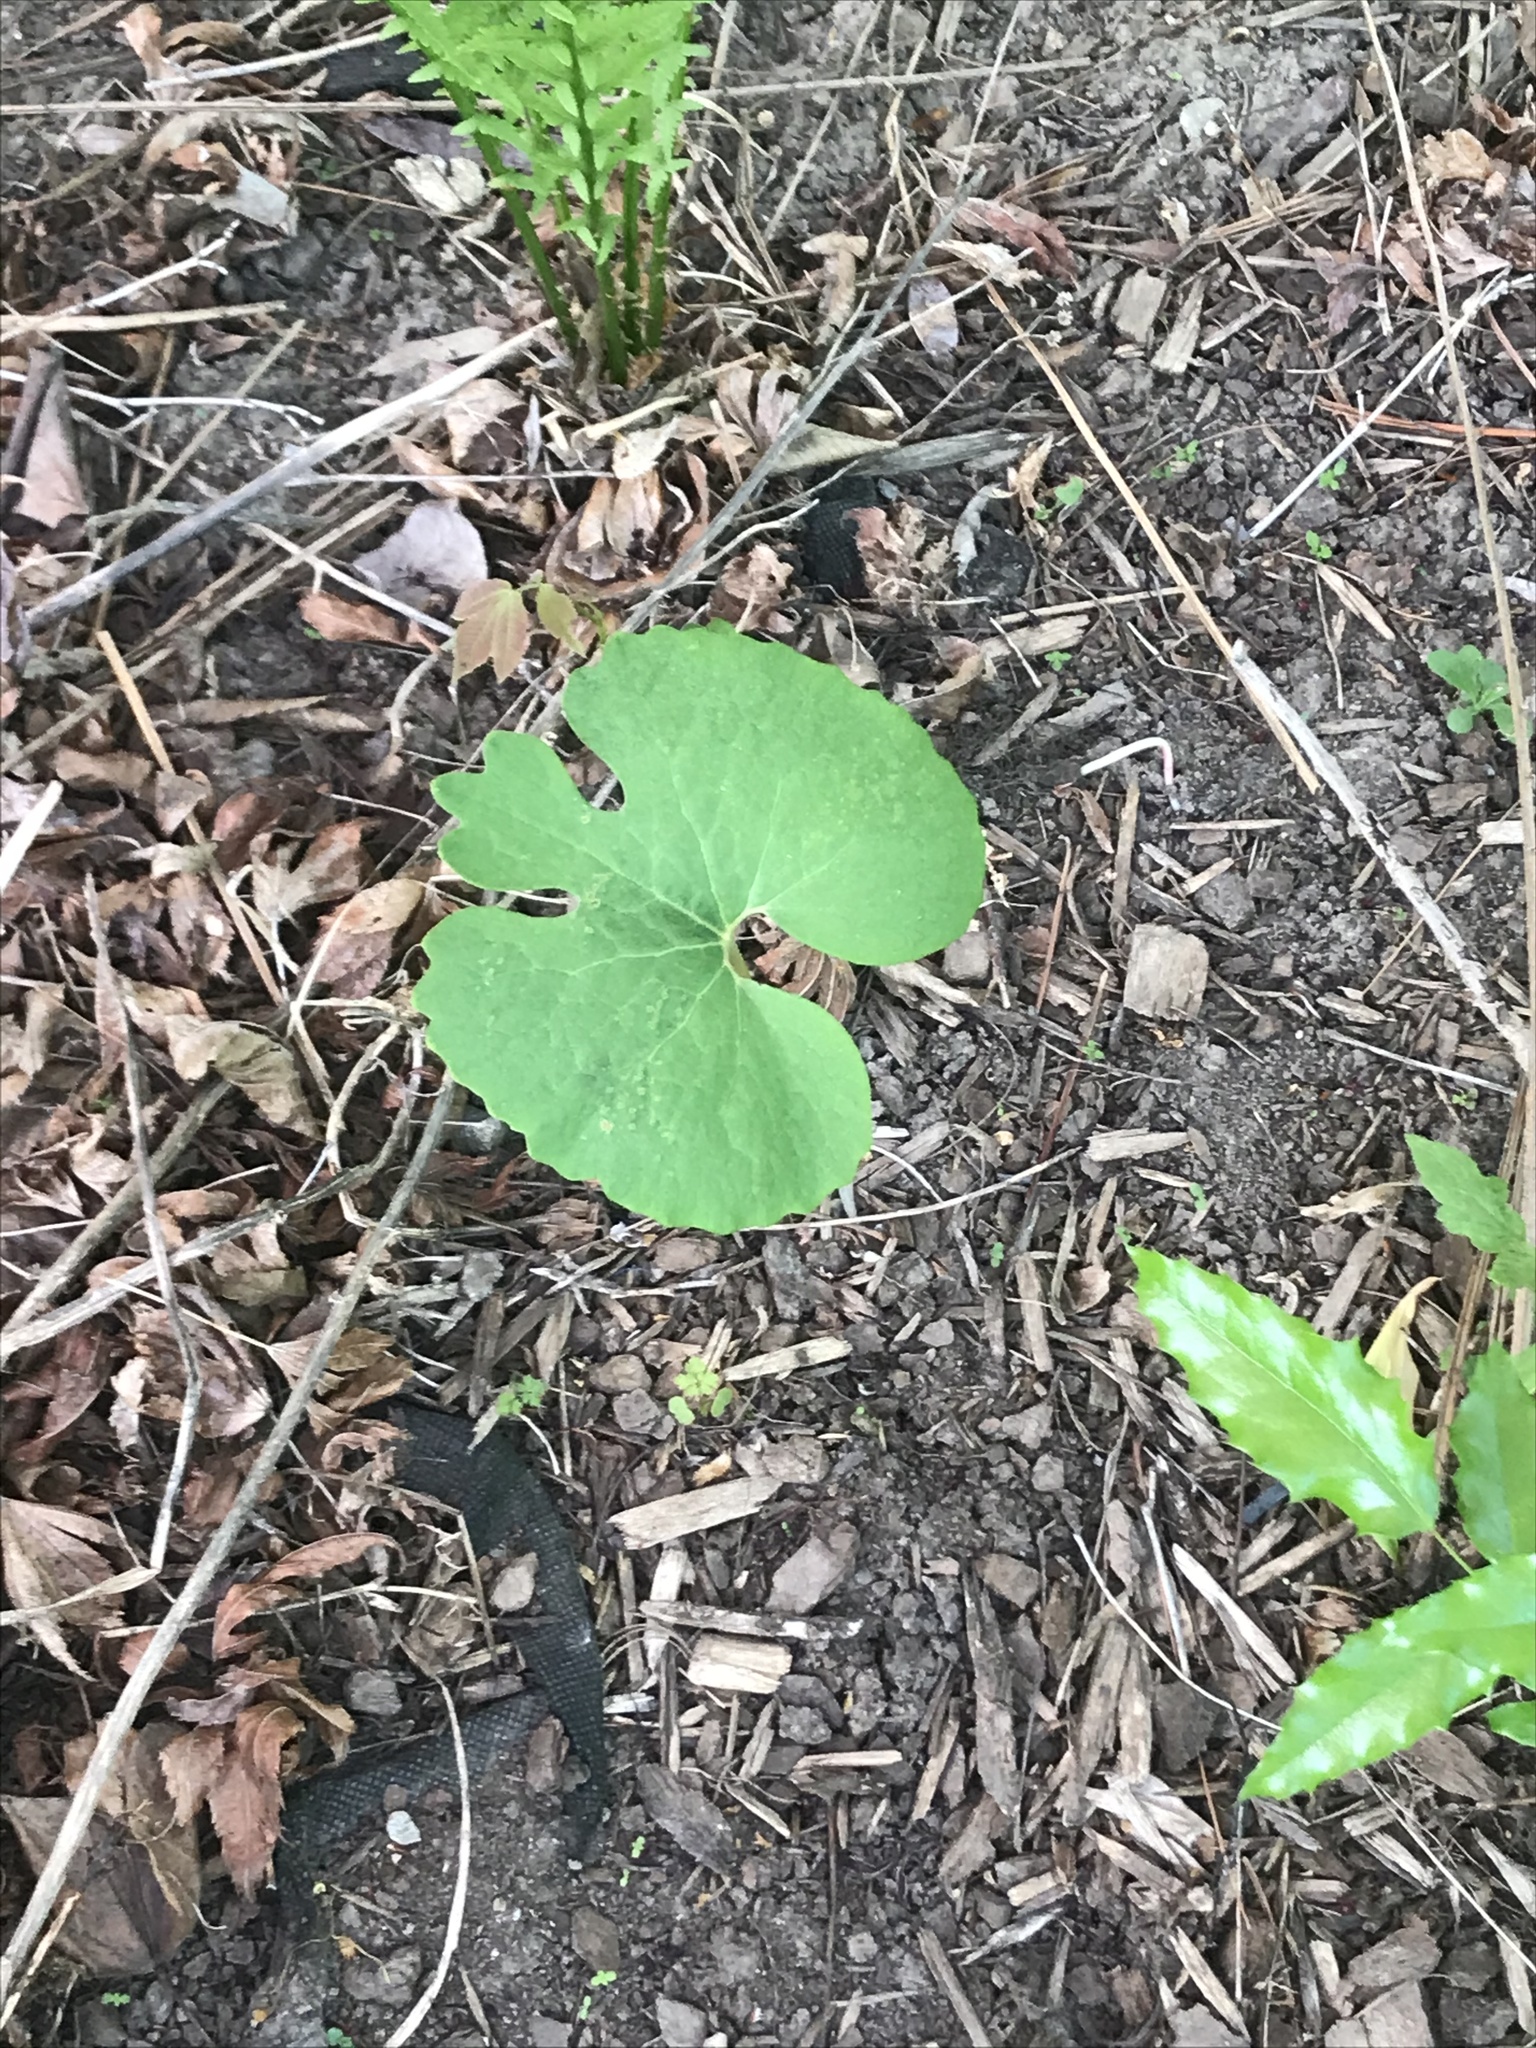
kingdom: Plantae
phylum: Tracheophyta
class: Magnoliopsida
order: Ranunculales
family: Papaveraceae
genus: Sanguinaria
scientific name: Sanguinaria canadensis
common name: Bloodroot
